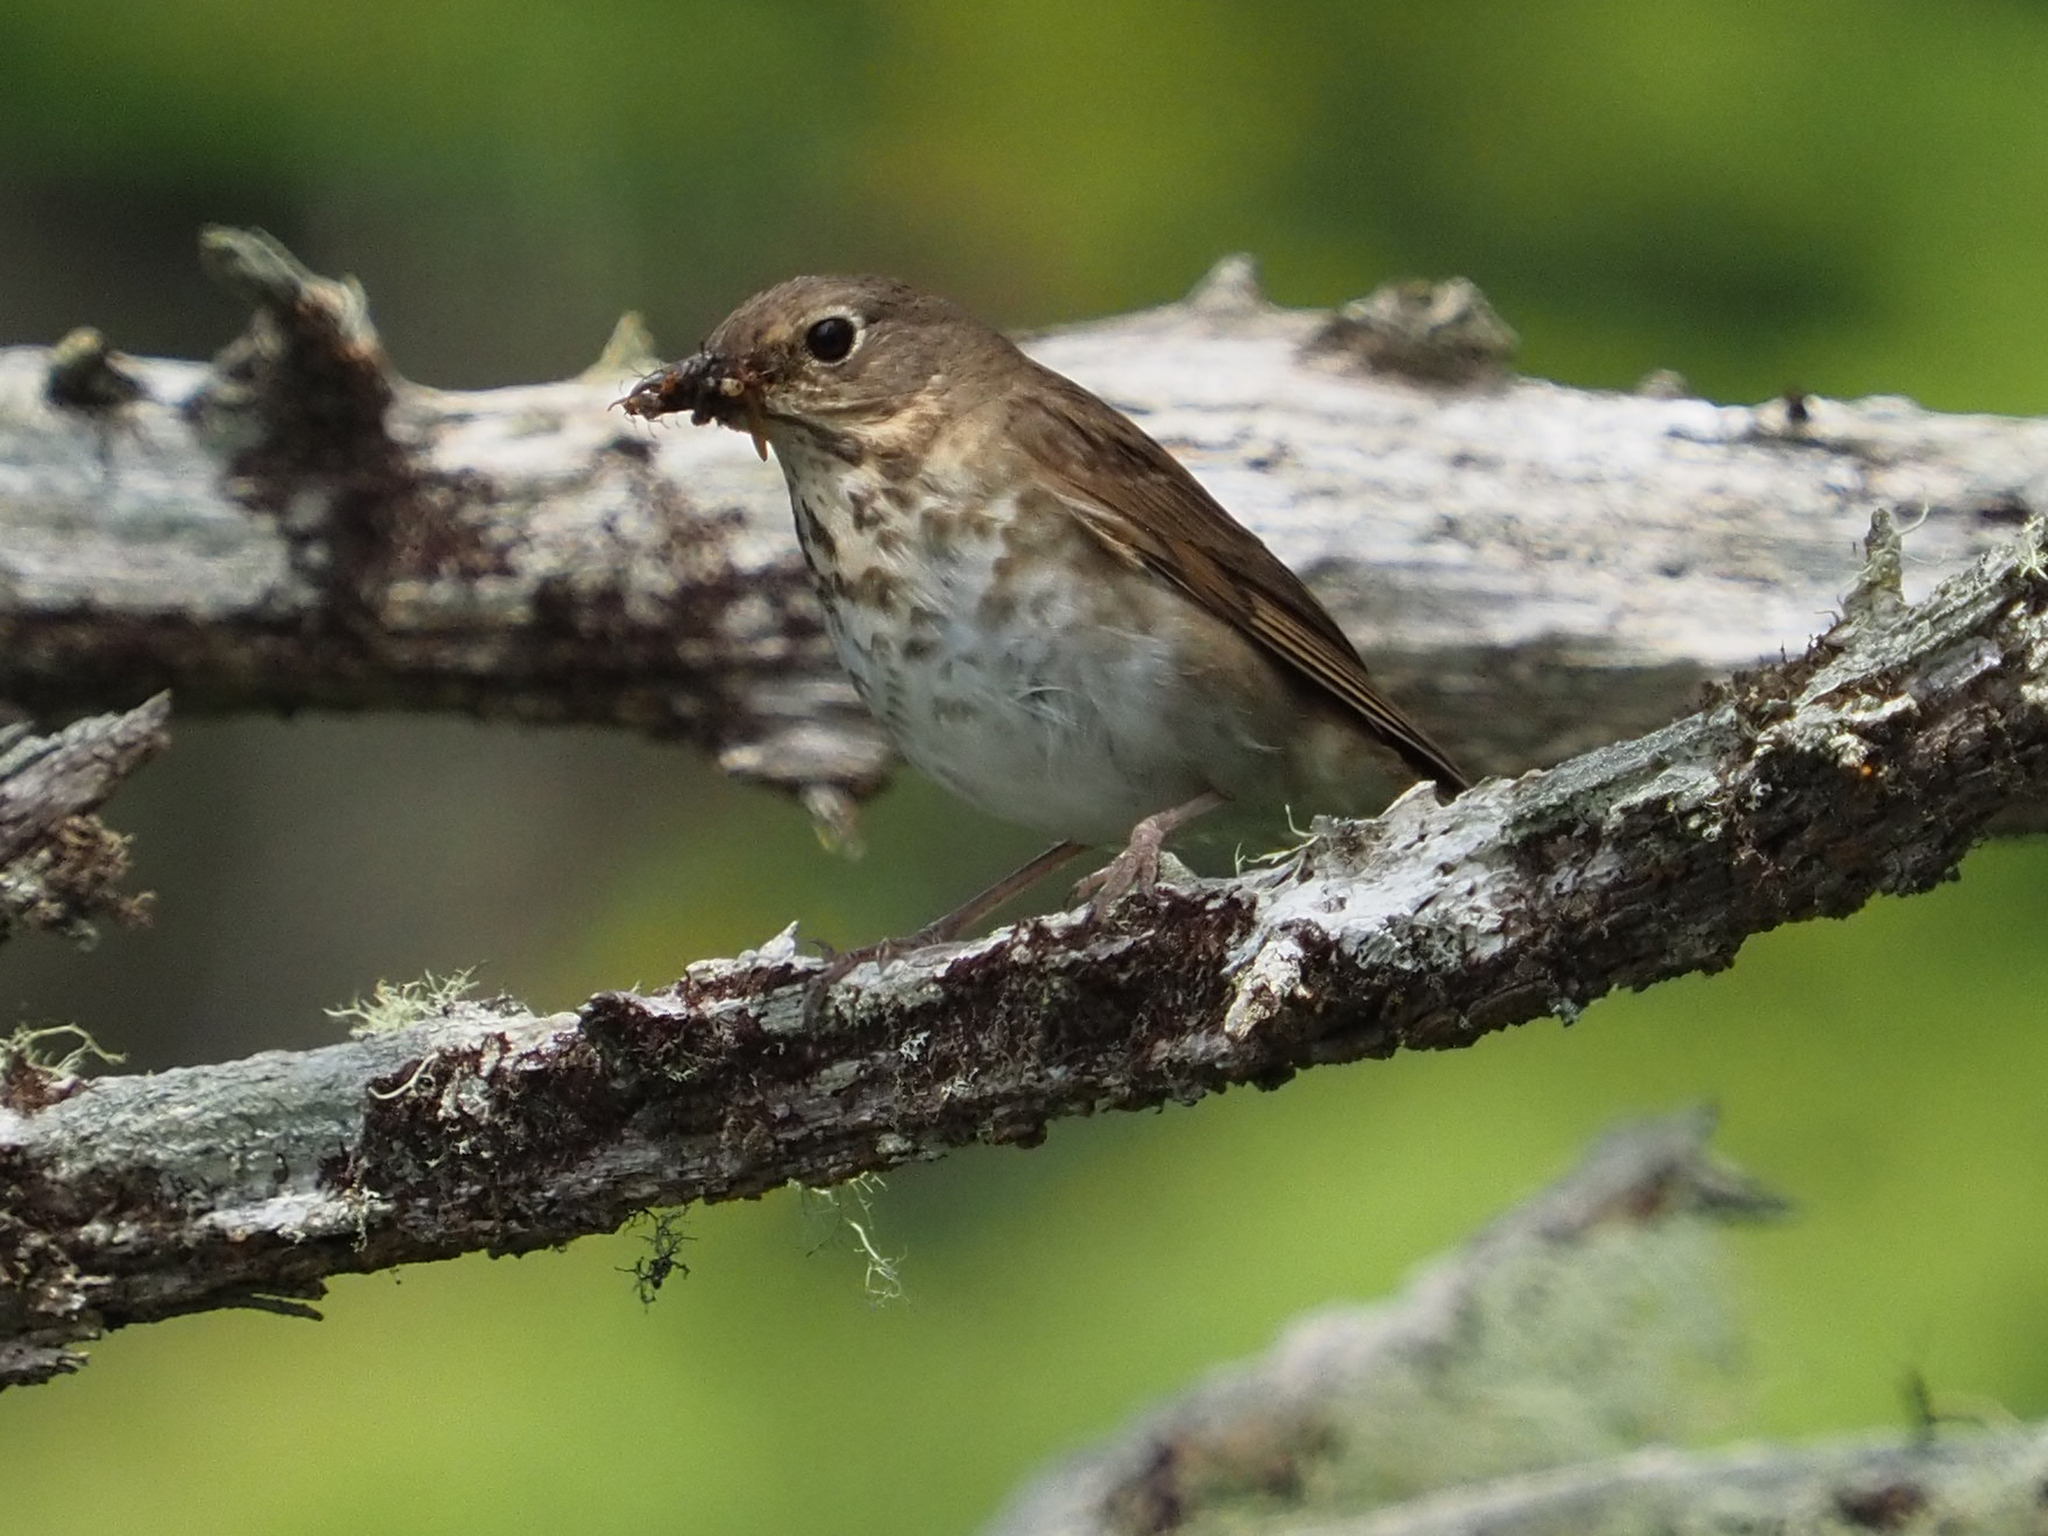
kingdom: Animalia
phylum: Chordata
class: Aves
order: Passeriformes
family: Turdidae
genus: Catharus
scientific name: Catharus ustulatus
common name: Swainson's thrush
